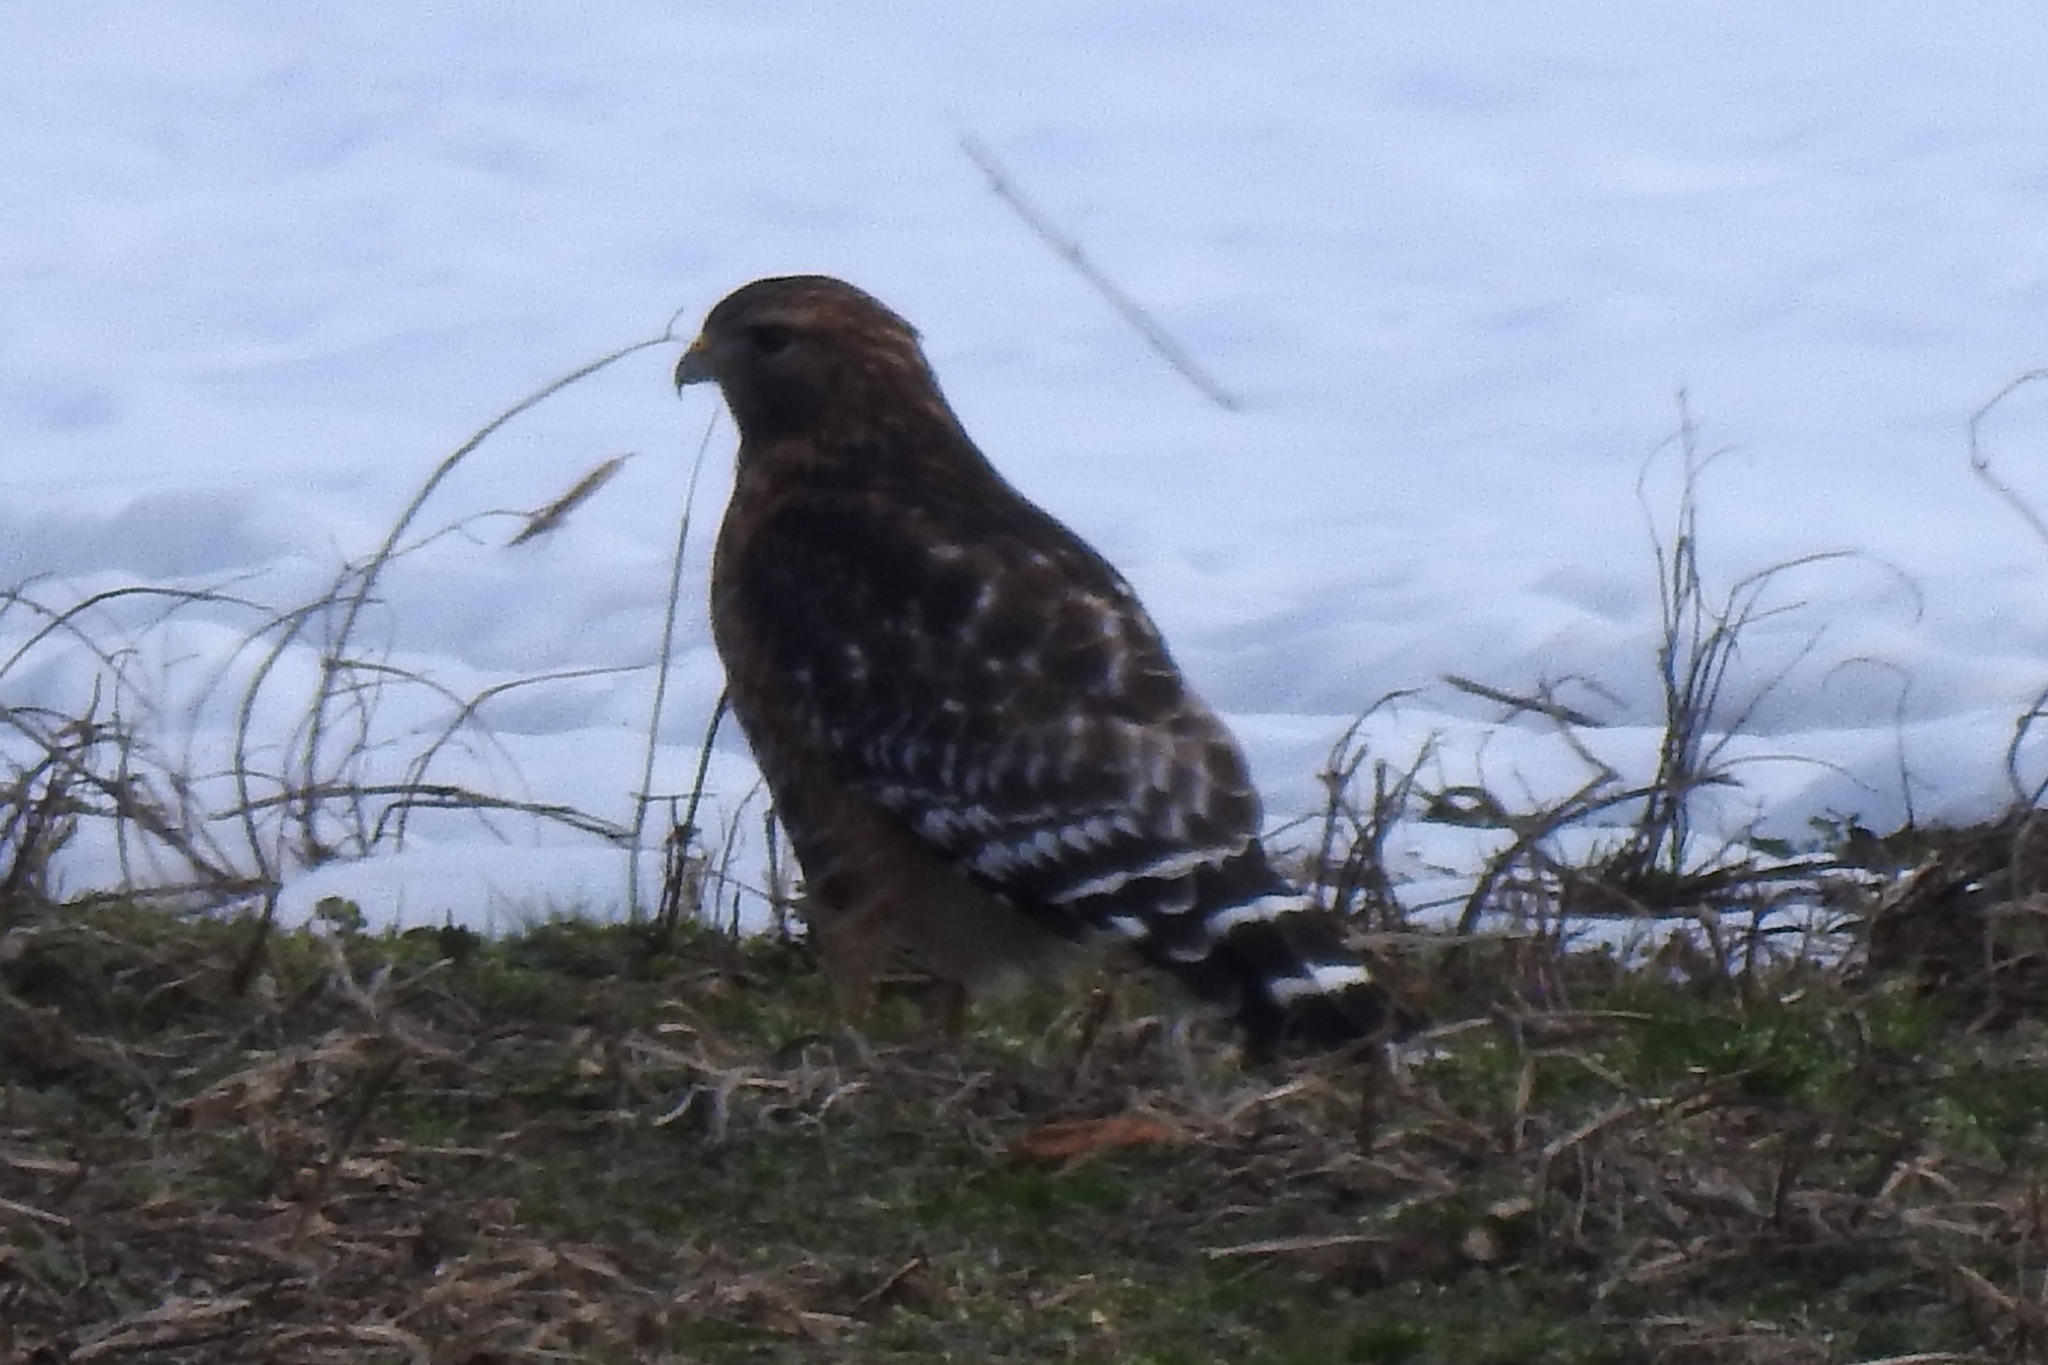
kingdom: Animalia
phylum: Chordata
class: Aves
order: Accipitriformes
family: Accipitridae
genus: Buteo
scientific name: Buteo lineatus
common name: Red-shouldered hawk
